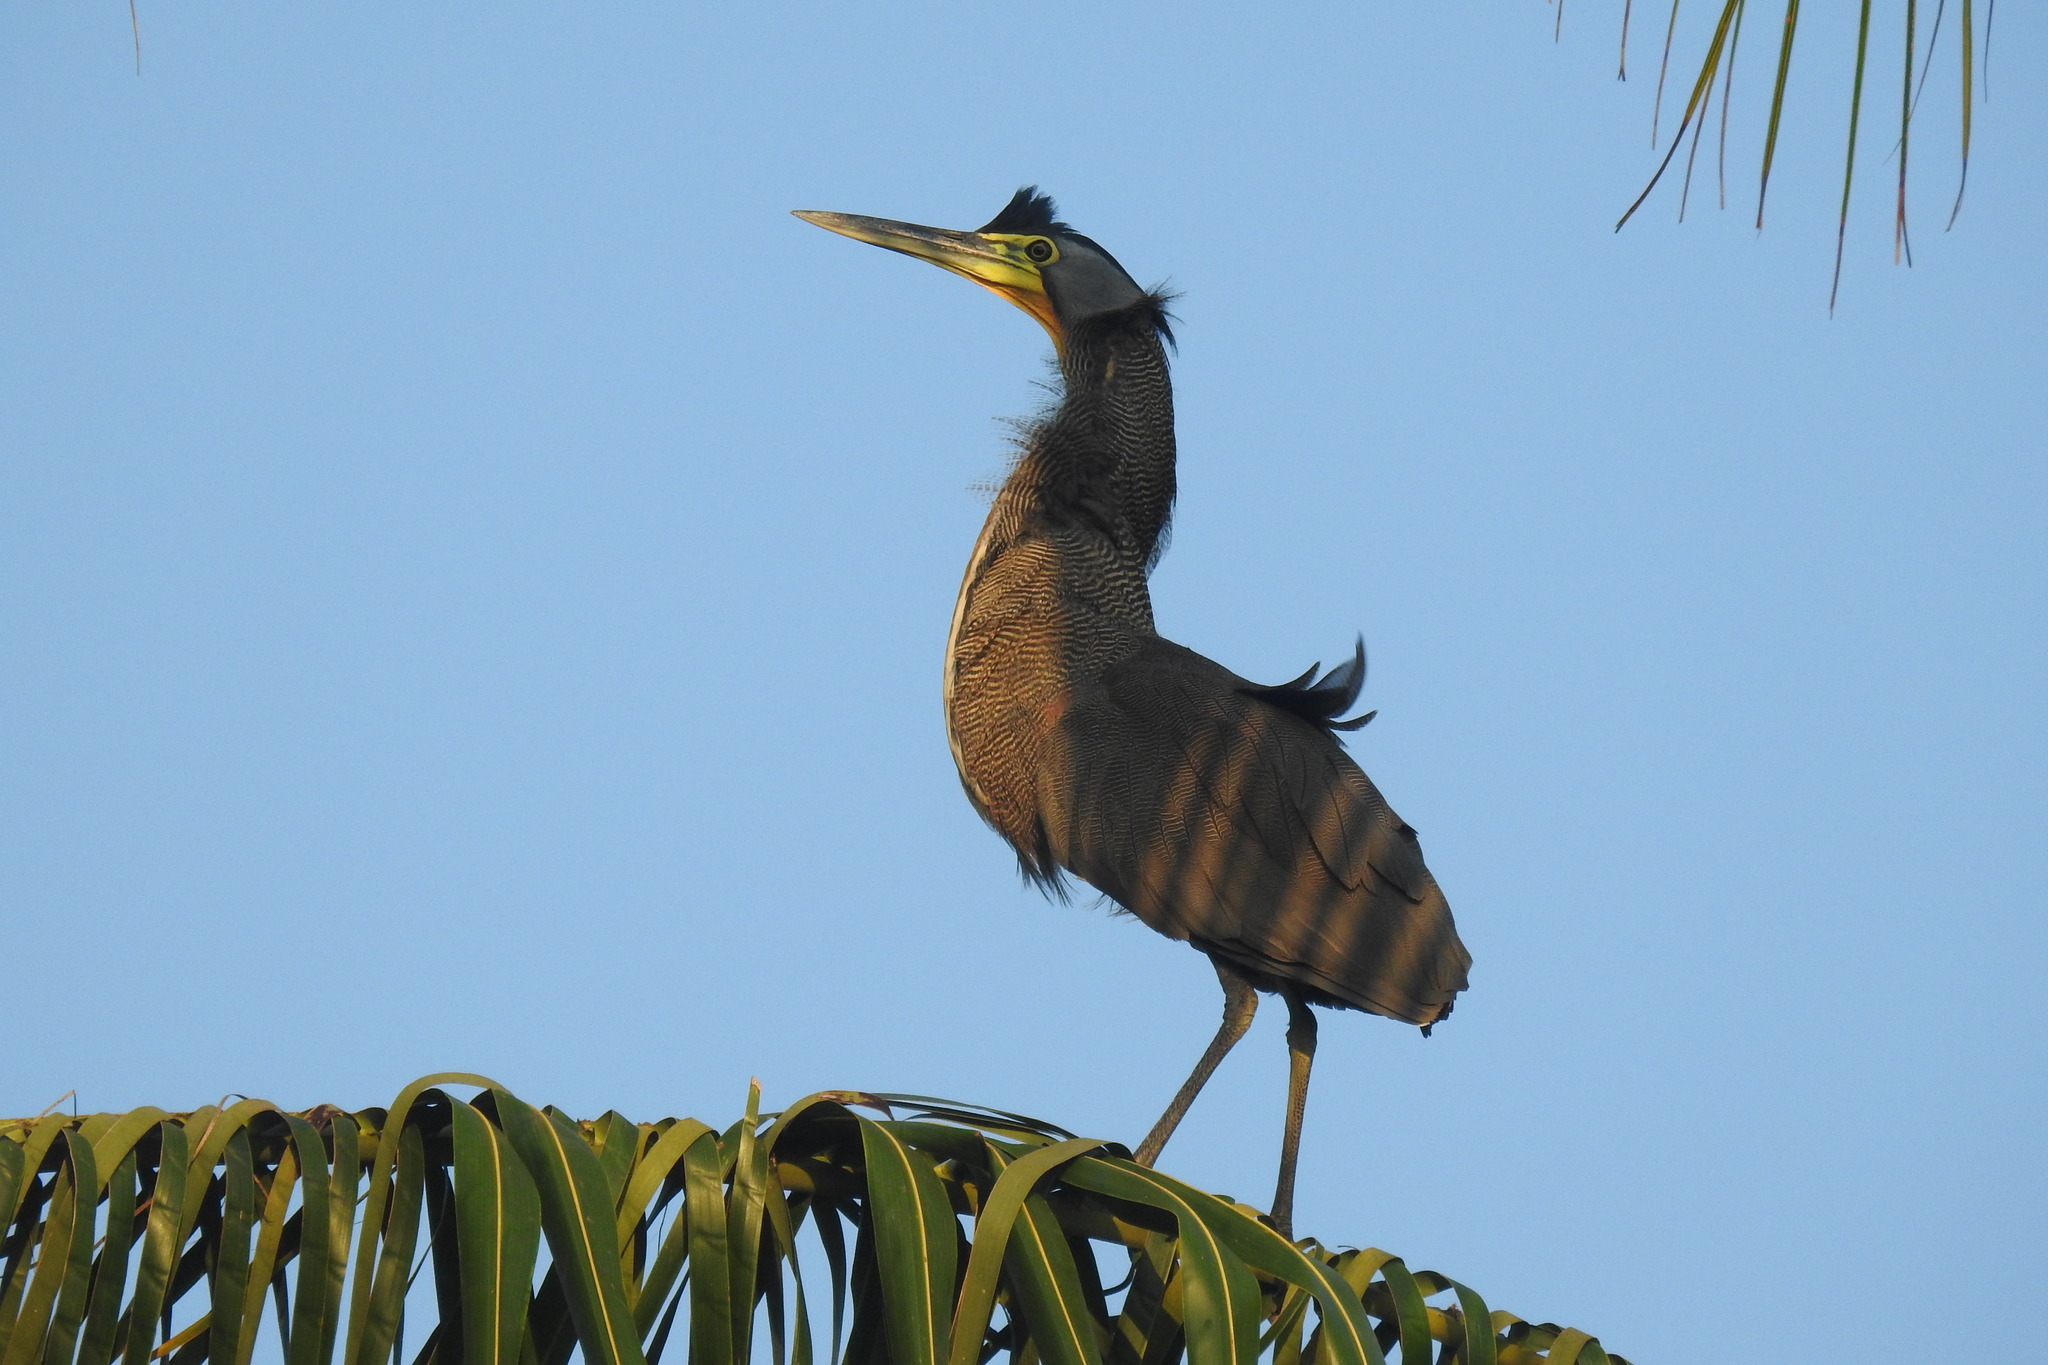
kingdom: Animalia
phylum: Chordata
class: Aves
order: Pelecaniformes
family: Ardeidae
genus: Tigrisoma
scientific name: Tigrisoma mexicanum
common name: Bare-throated tiger-heron
